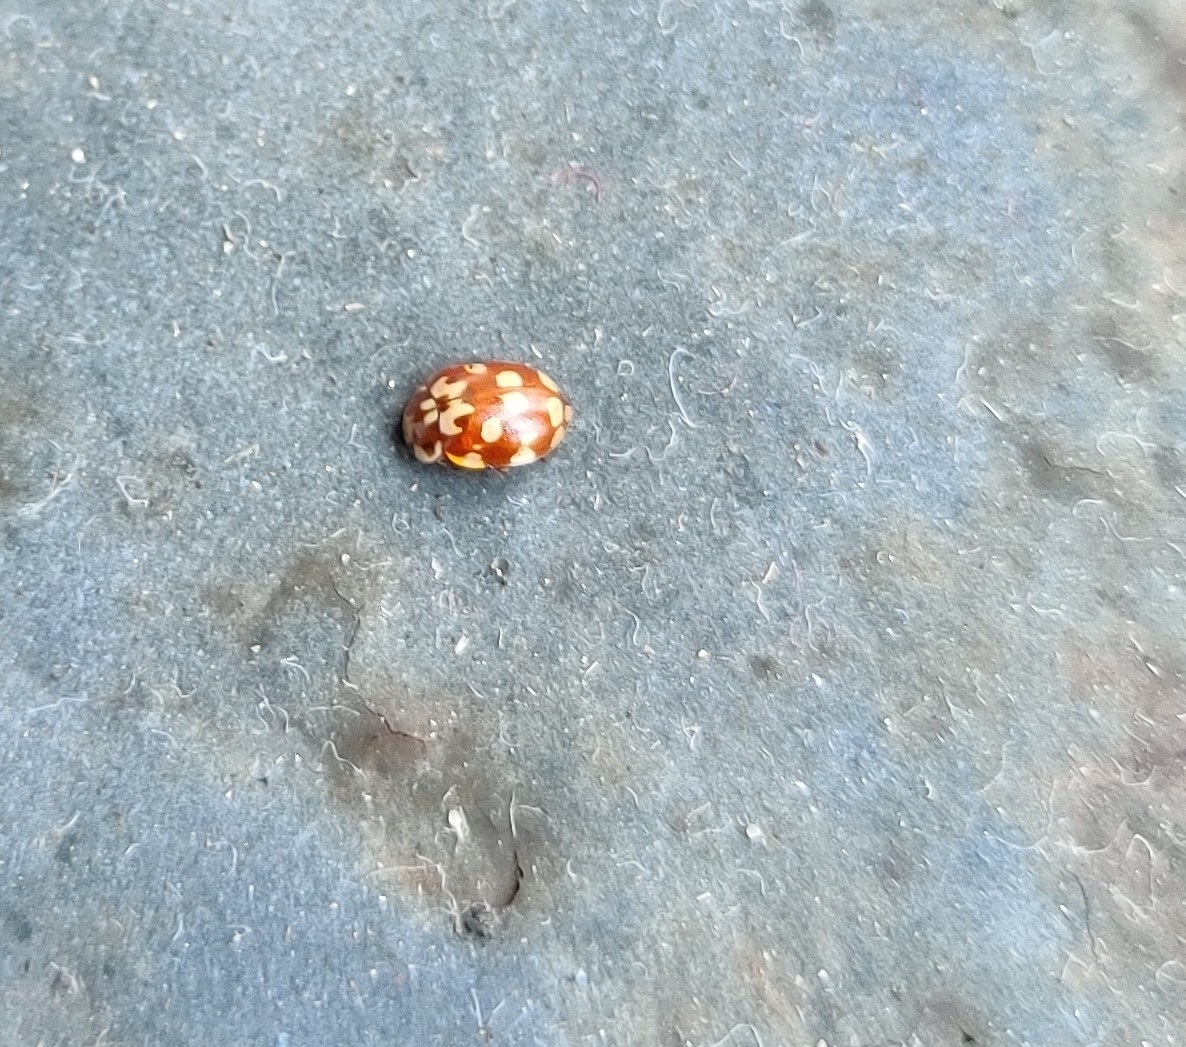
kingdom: Animalia
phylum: Arthropoda
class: Insecta
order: Coleoptera
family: Coccinellidae
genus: Myrrha
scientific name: Myrrha octodecimguttata
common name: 18-spot ladybird
